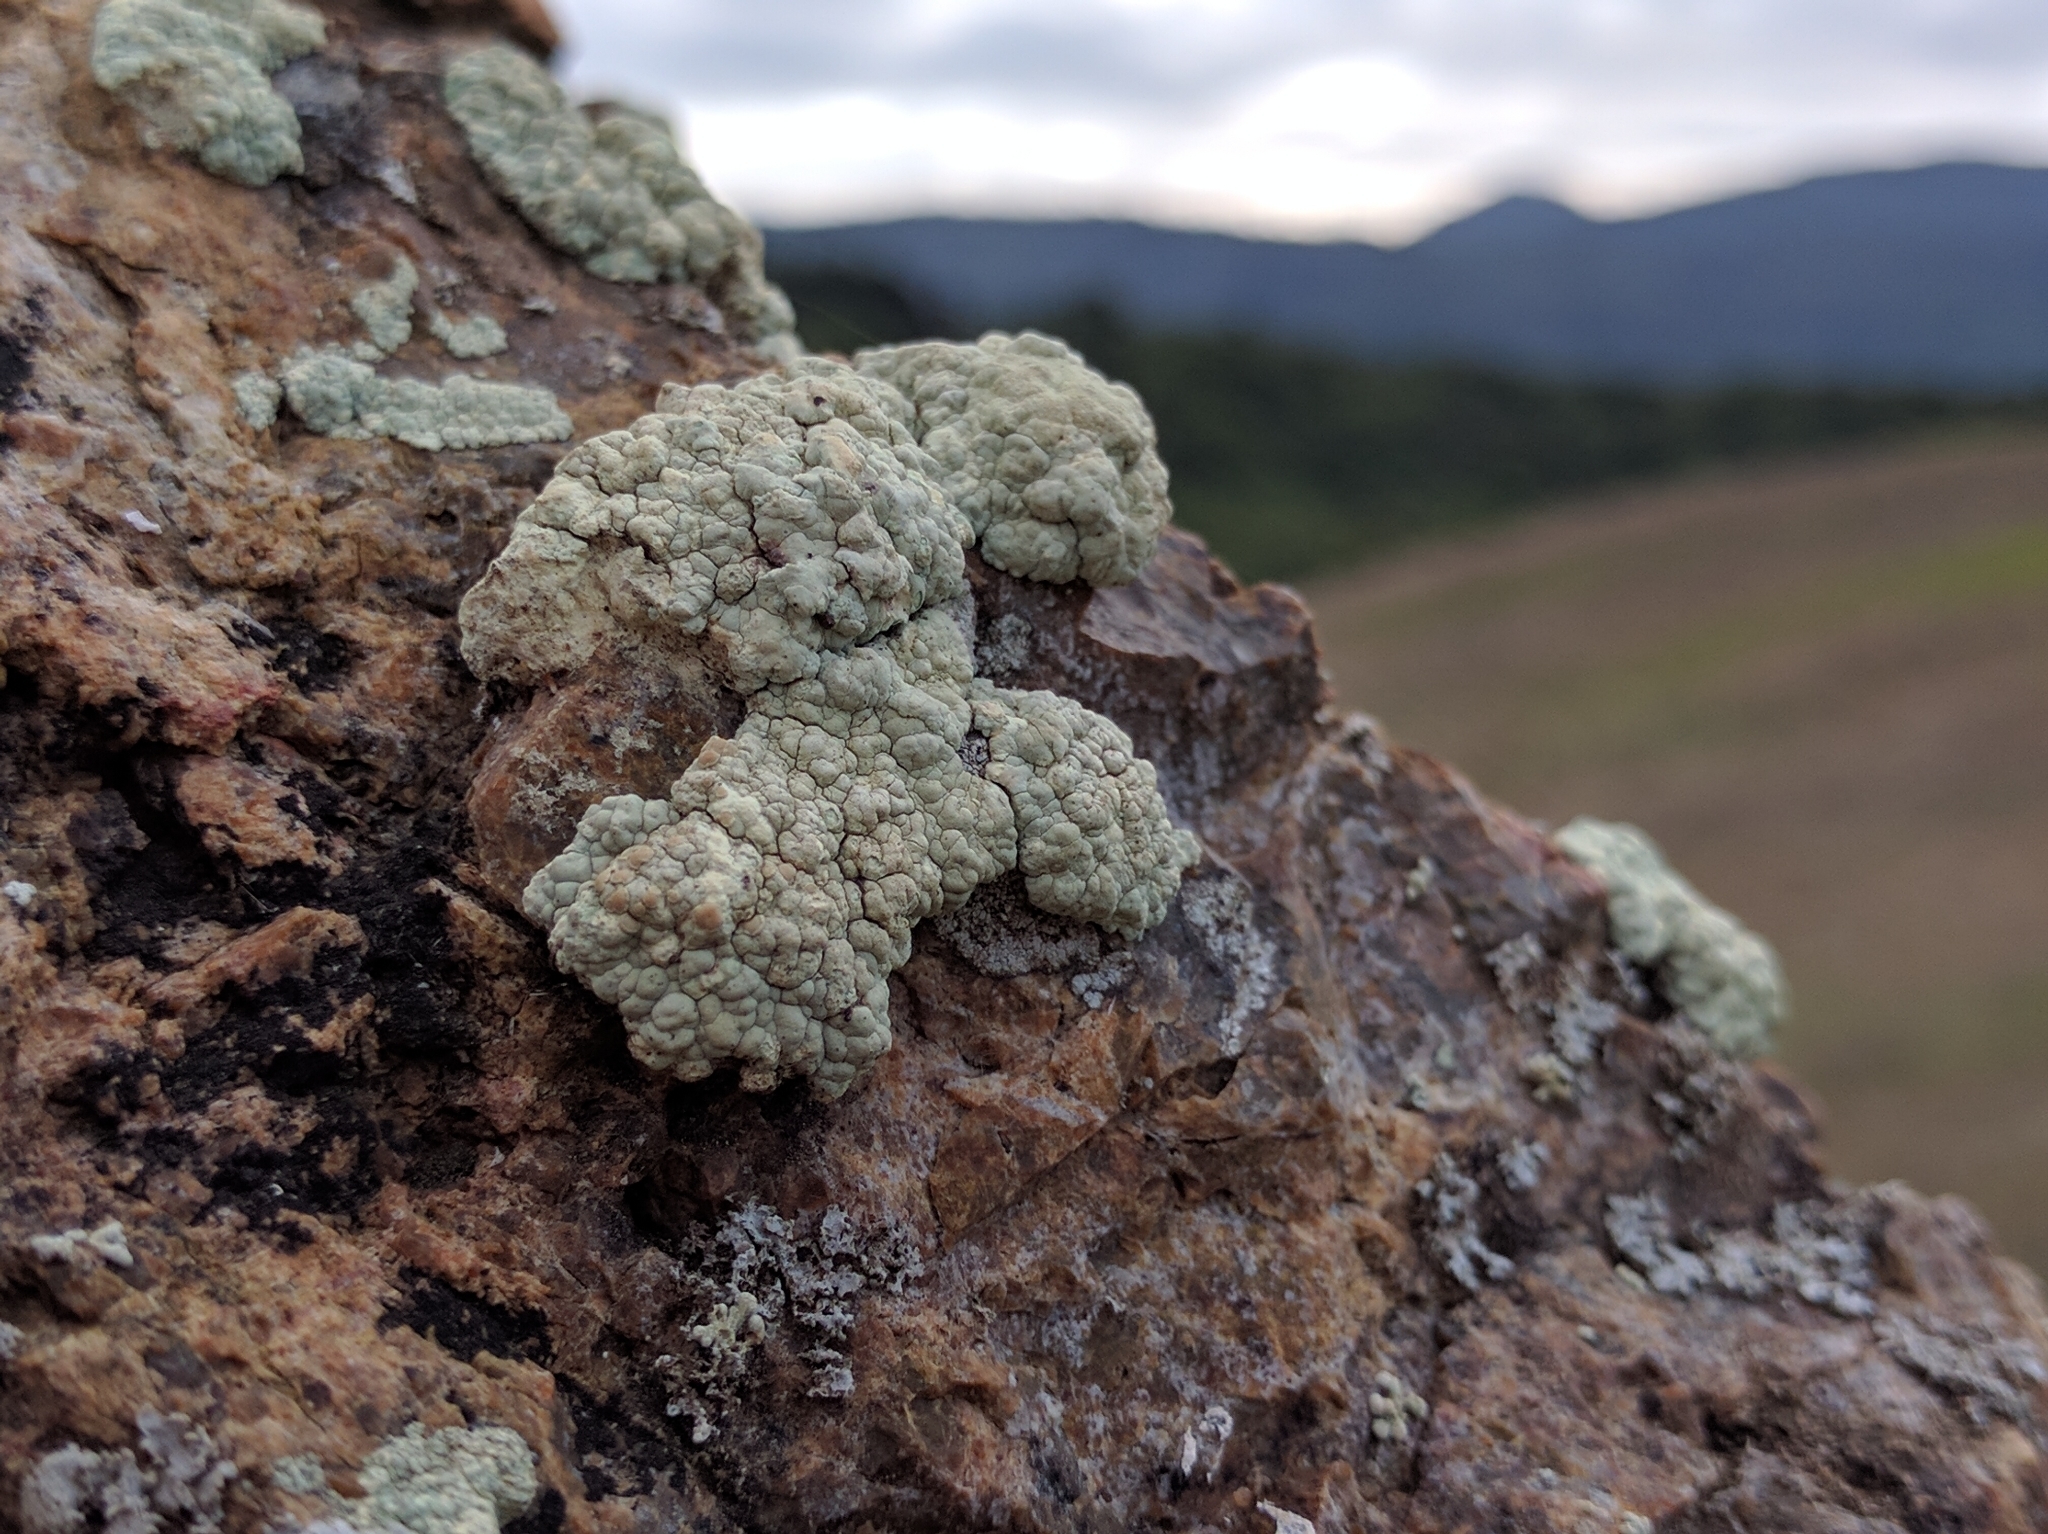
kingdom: Fungi
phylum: Ascomycota
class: Lecanoromycetes
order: Lecanorales
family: Lecanoraceae
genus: Protoparmeliopsis
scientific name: Protoparmeliopsis pinguis
